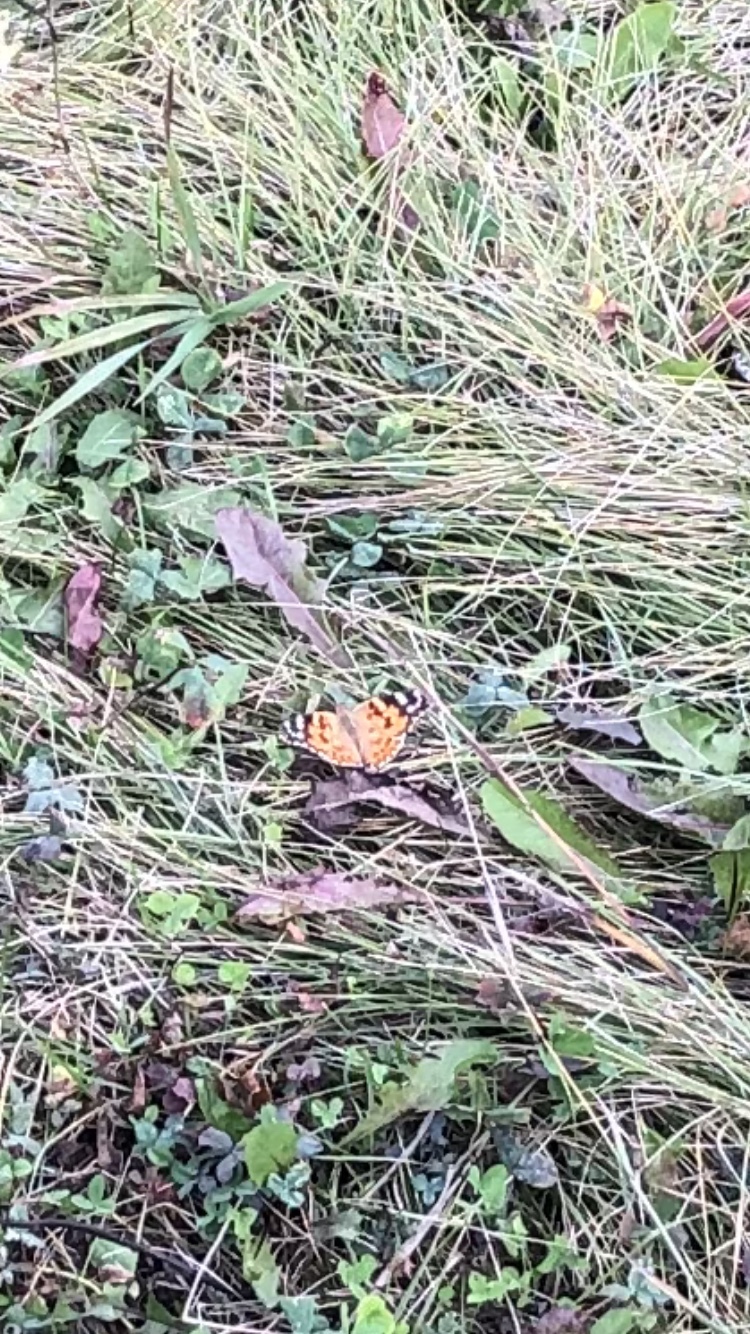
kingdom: Animalia
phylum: Arthropoda
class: Insecta
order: Lepidoptera
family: Nymphalidae
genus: Vanessa
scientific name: Vanessa cardui
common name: Painted lady
